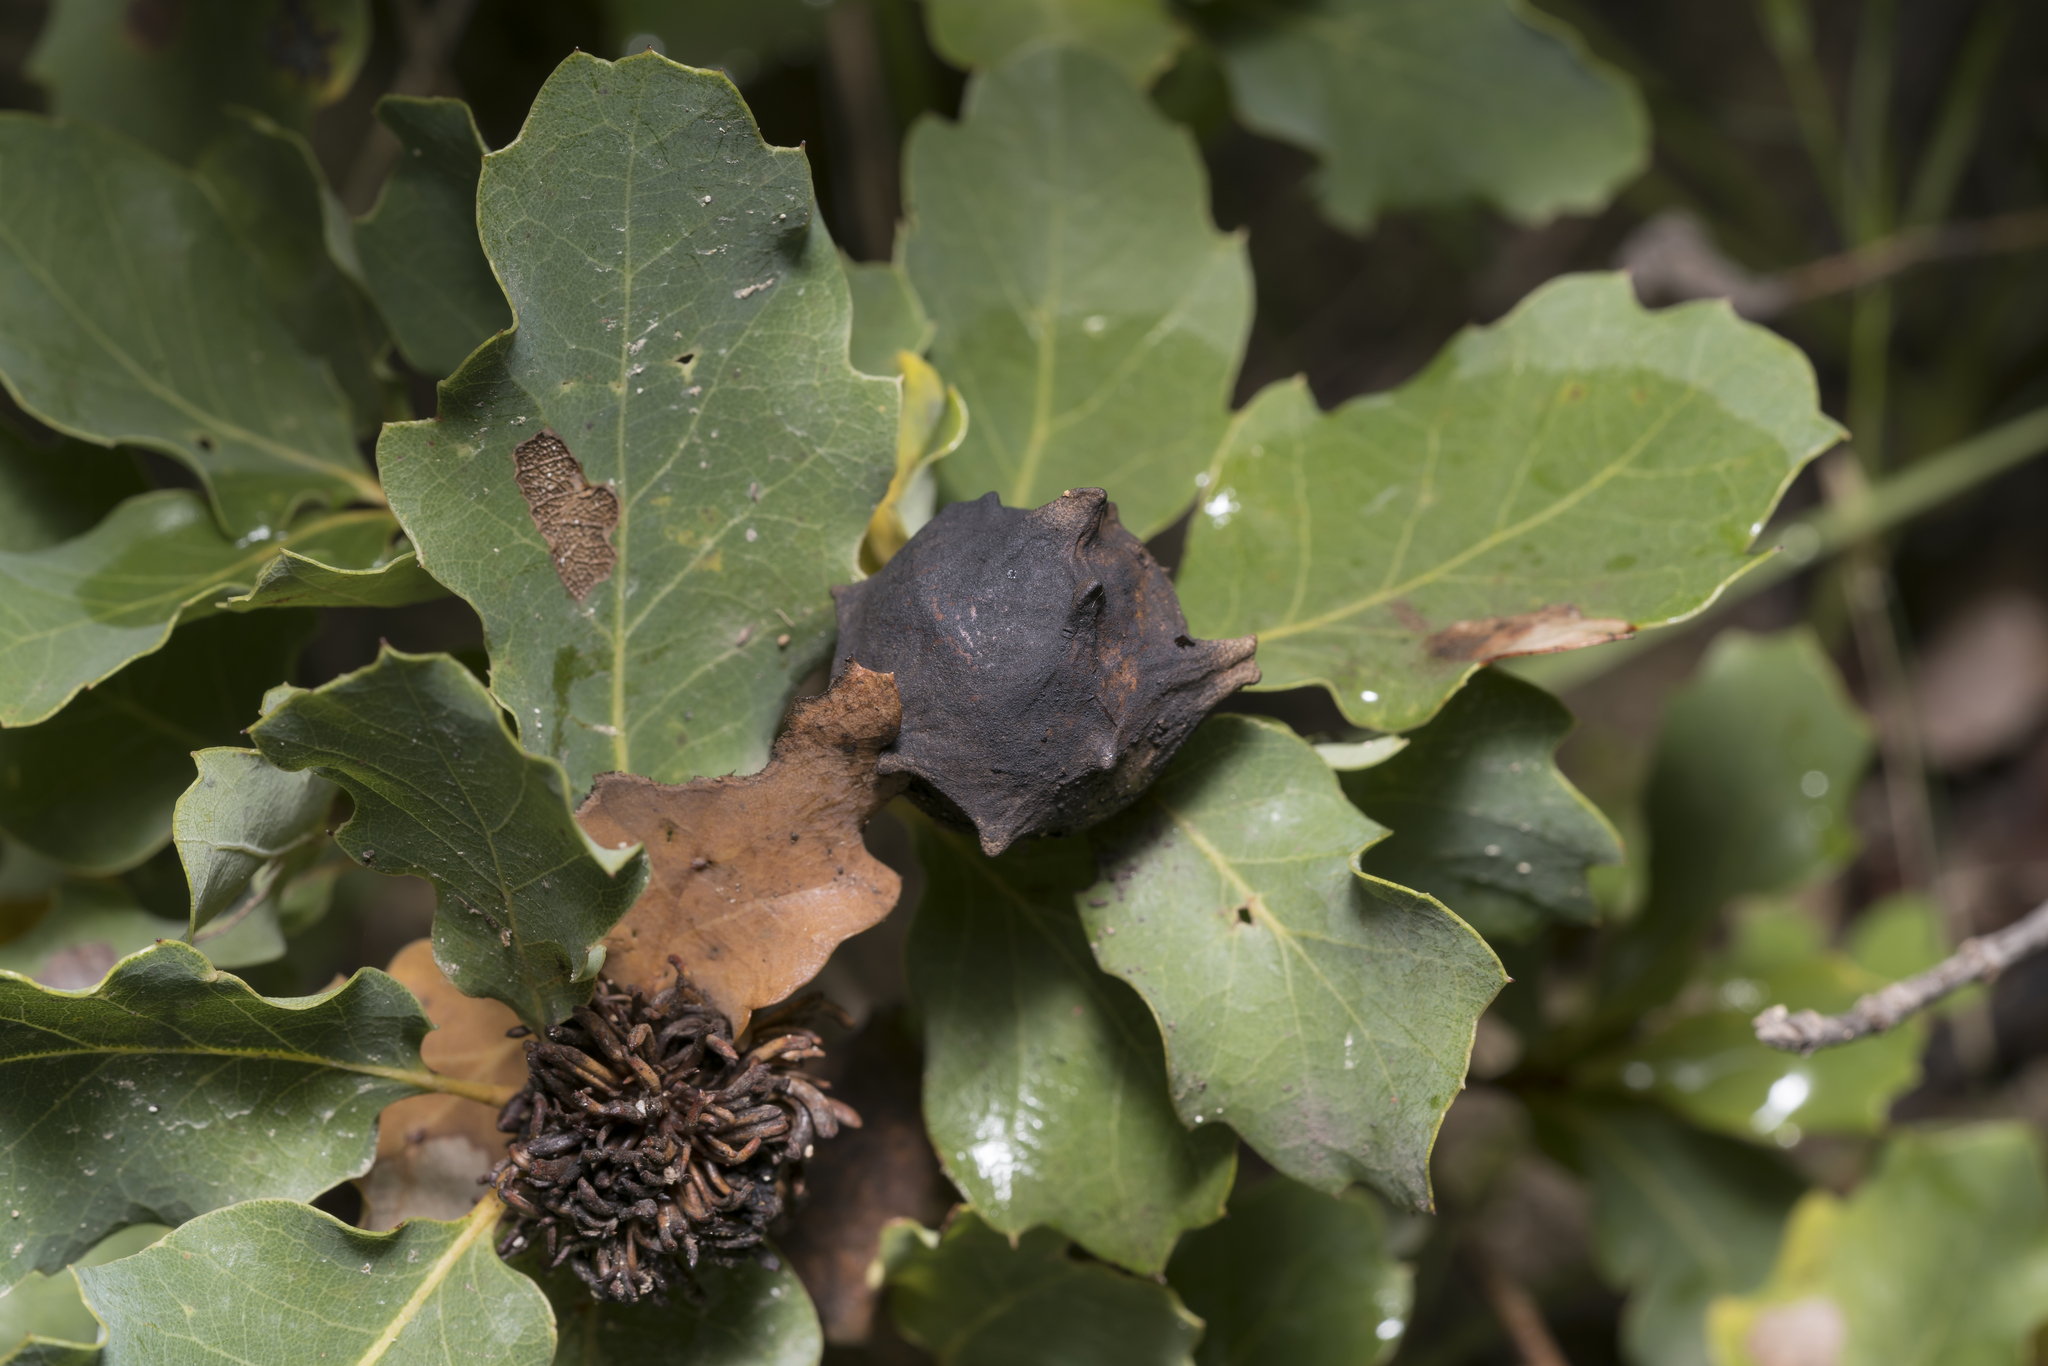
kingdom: Animalia
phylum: Arthropoda
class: Insecta
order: Hymenoptera
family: Cynipidae
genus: Andricus
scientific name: Andricus sternlichti
